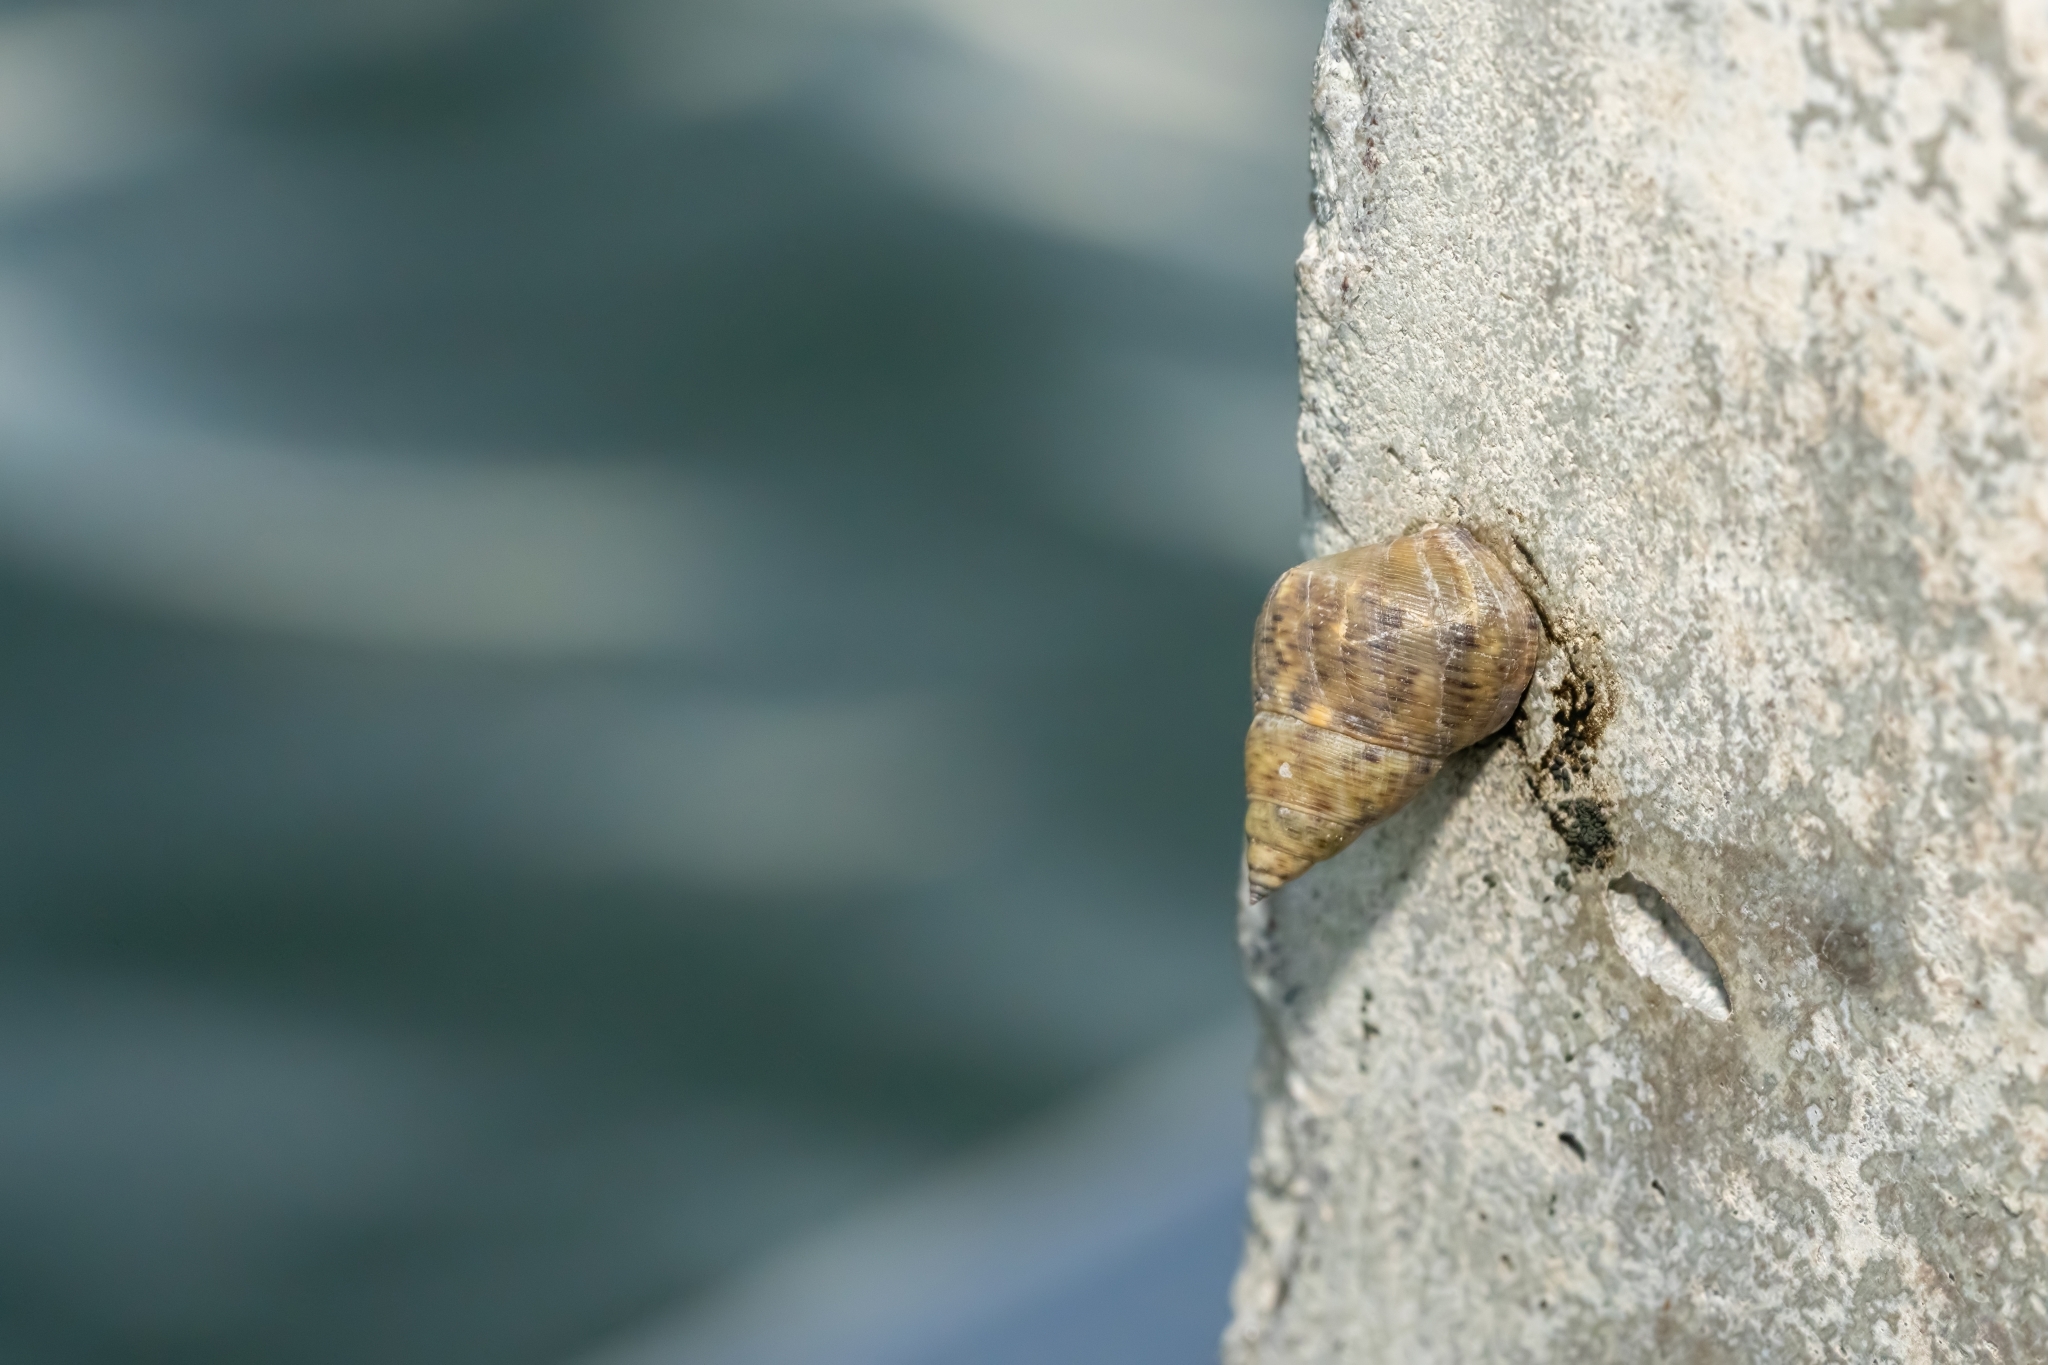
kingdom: Animalia
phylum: Mollusca
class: Gastropoda
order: Littorinimorpha
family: Littorinidae
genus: Littoraria
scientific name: Littoraria angulifera
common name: Mangrove periwinkle
